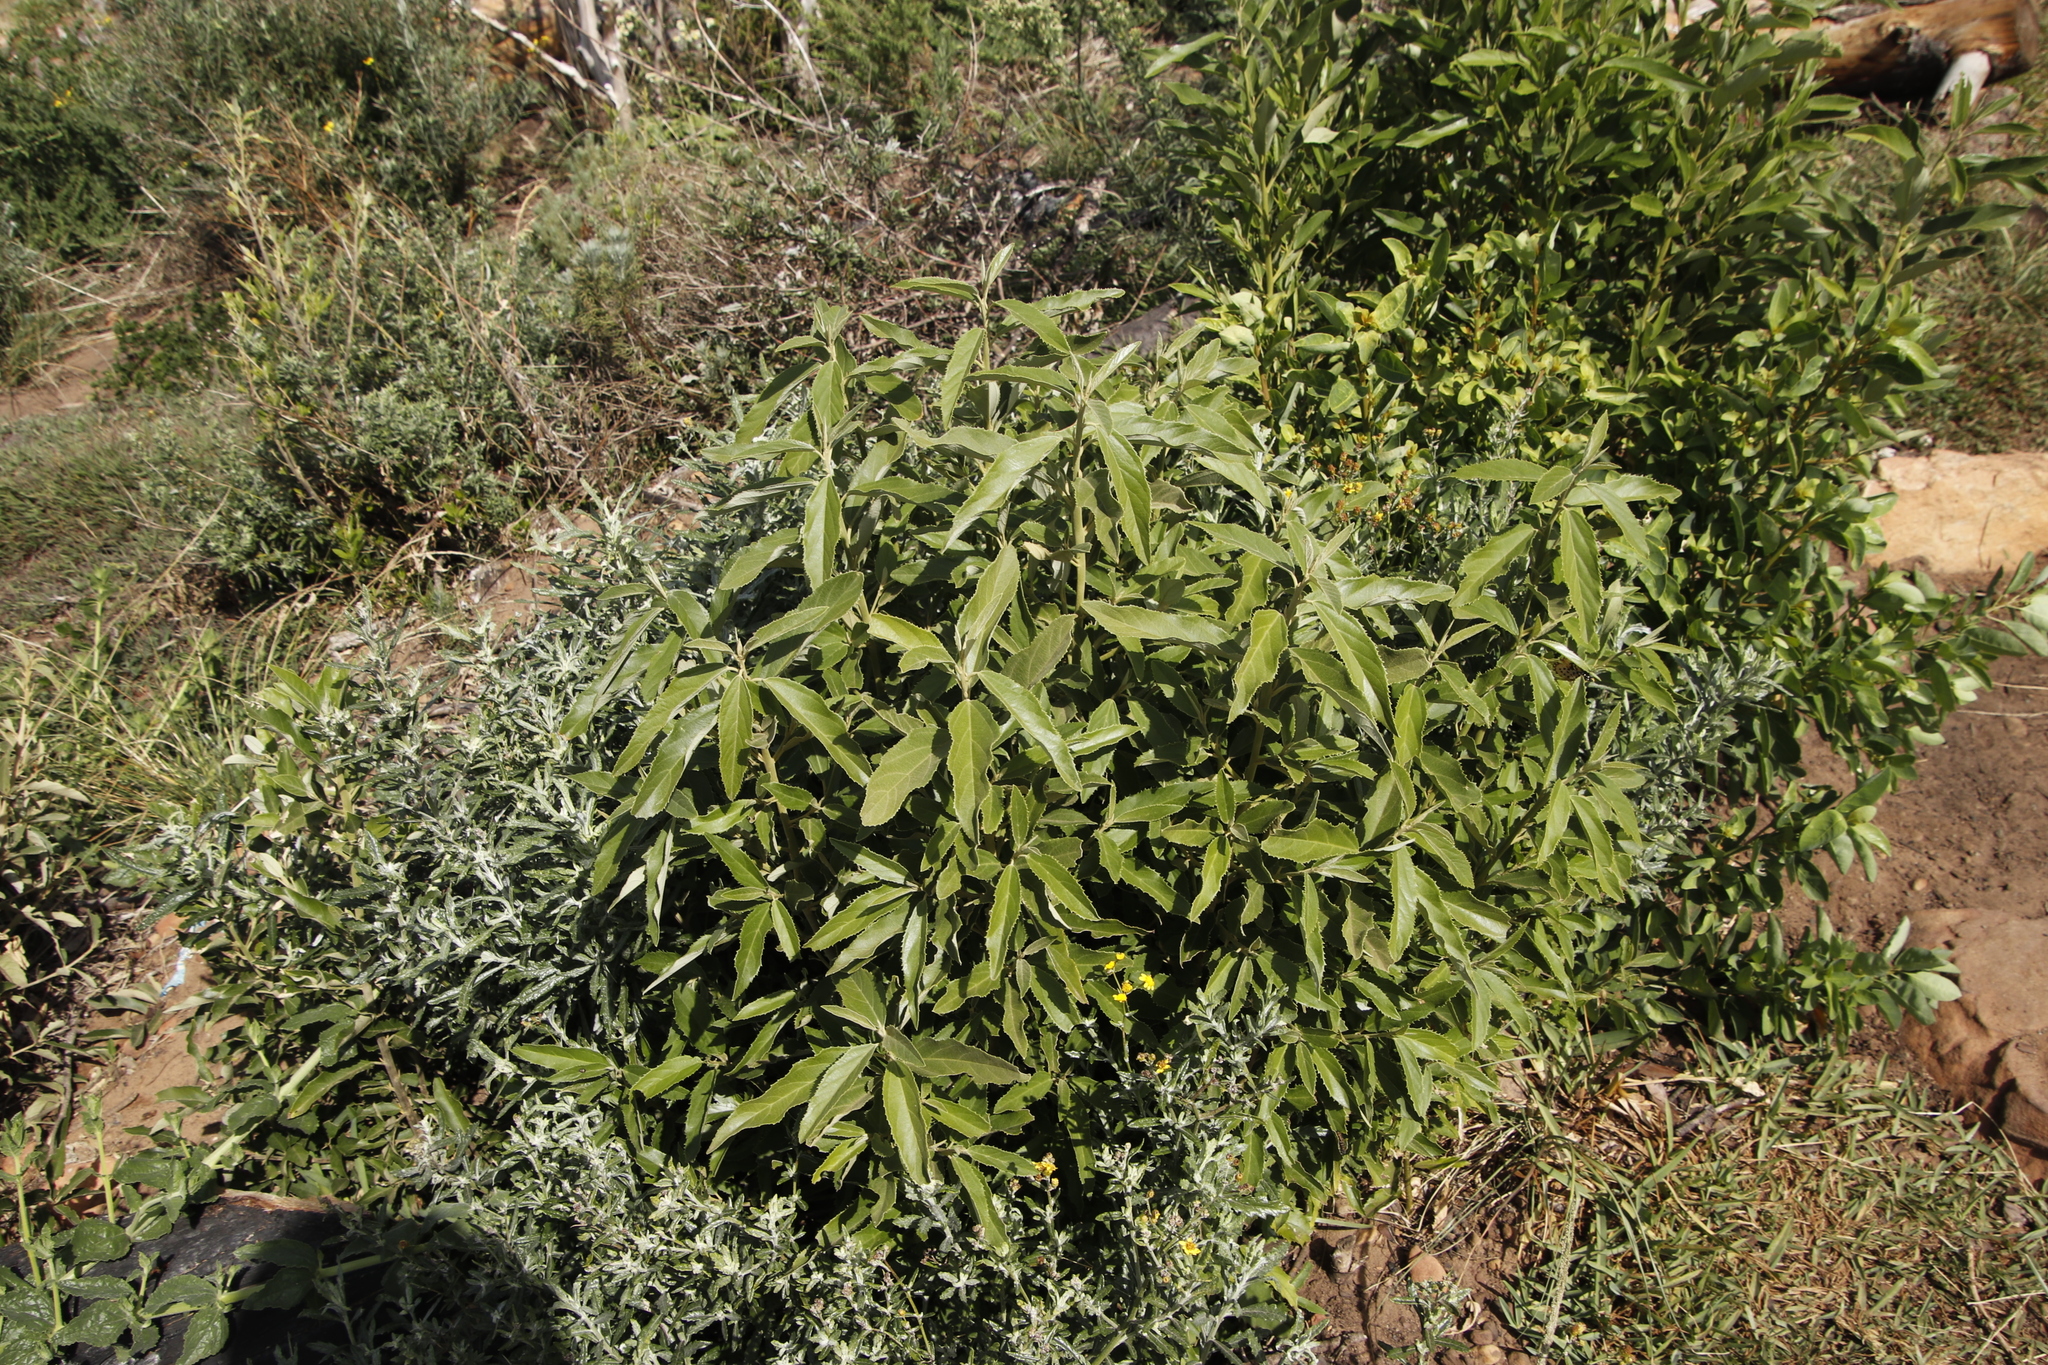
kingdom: Plantae
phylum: Tracheophyta
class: Magnoliopsida
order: Malpighiales
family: Achariaceae
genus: Kiggelaria
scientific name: Kiggelaria africana
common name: Wild peach
